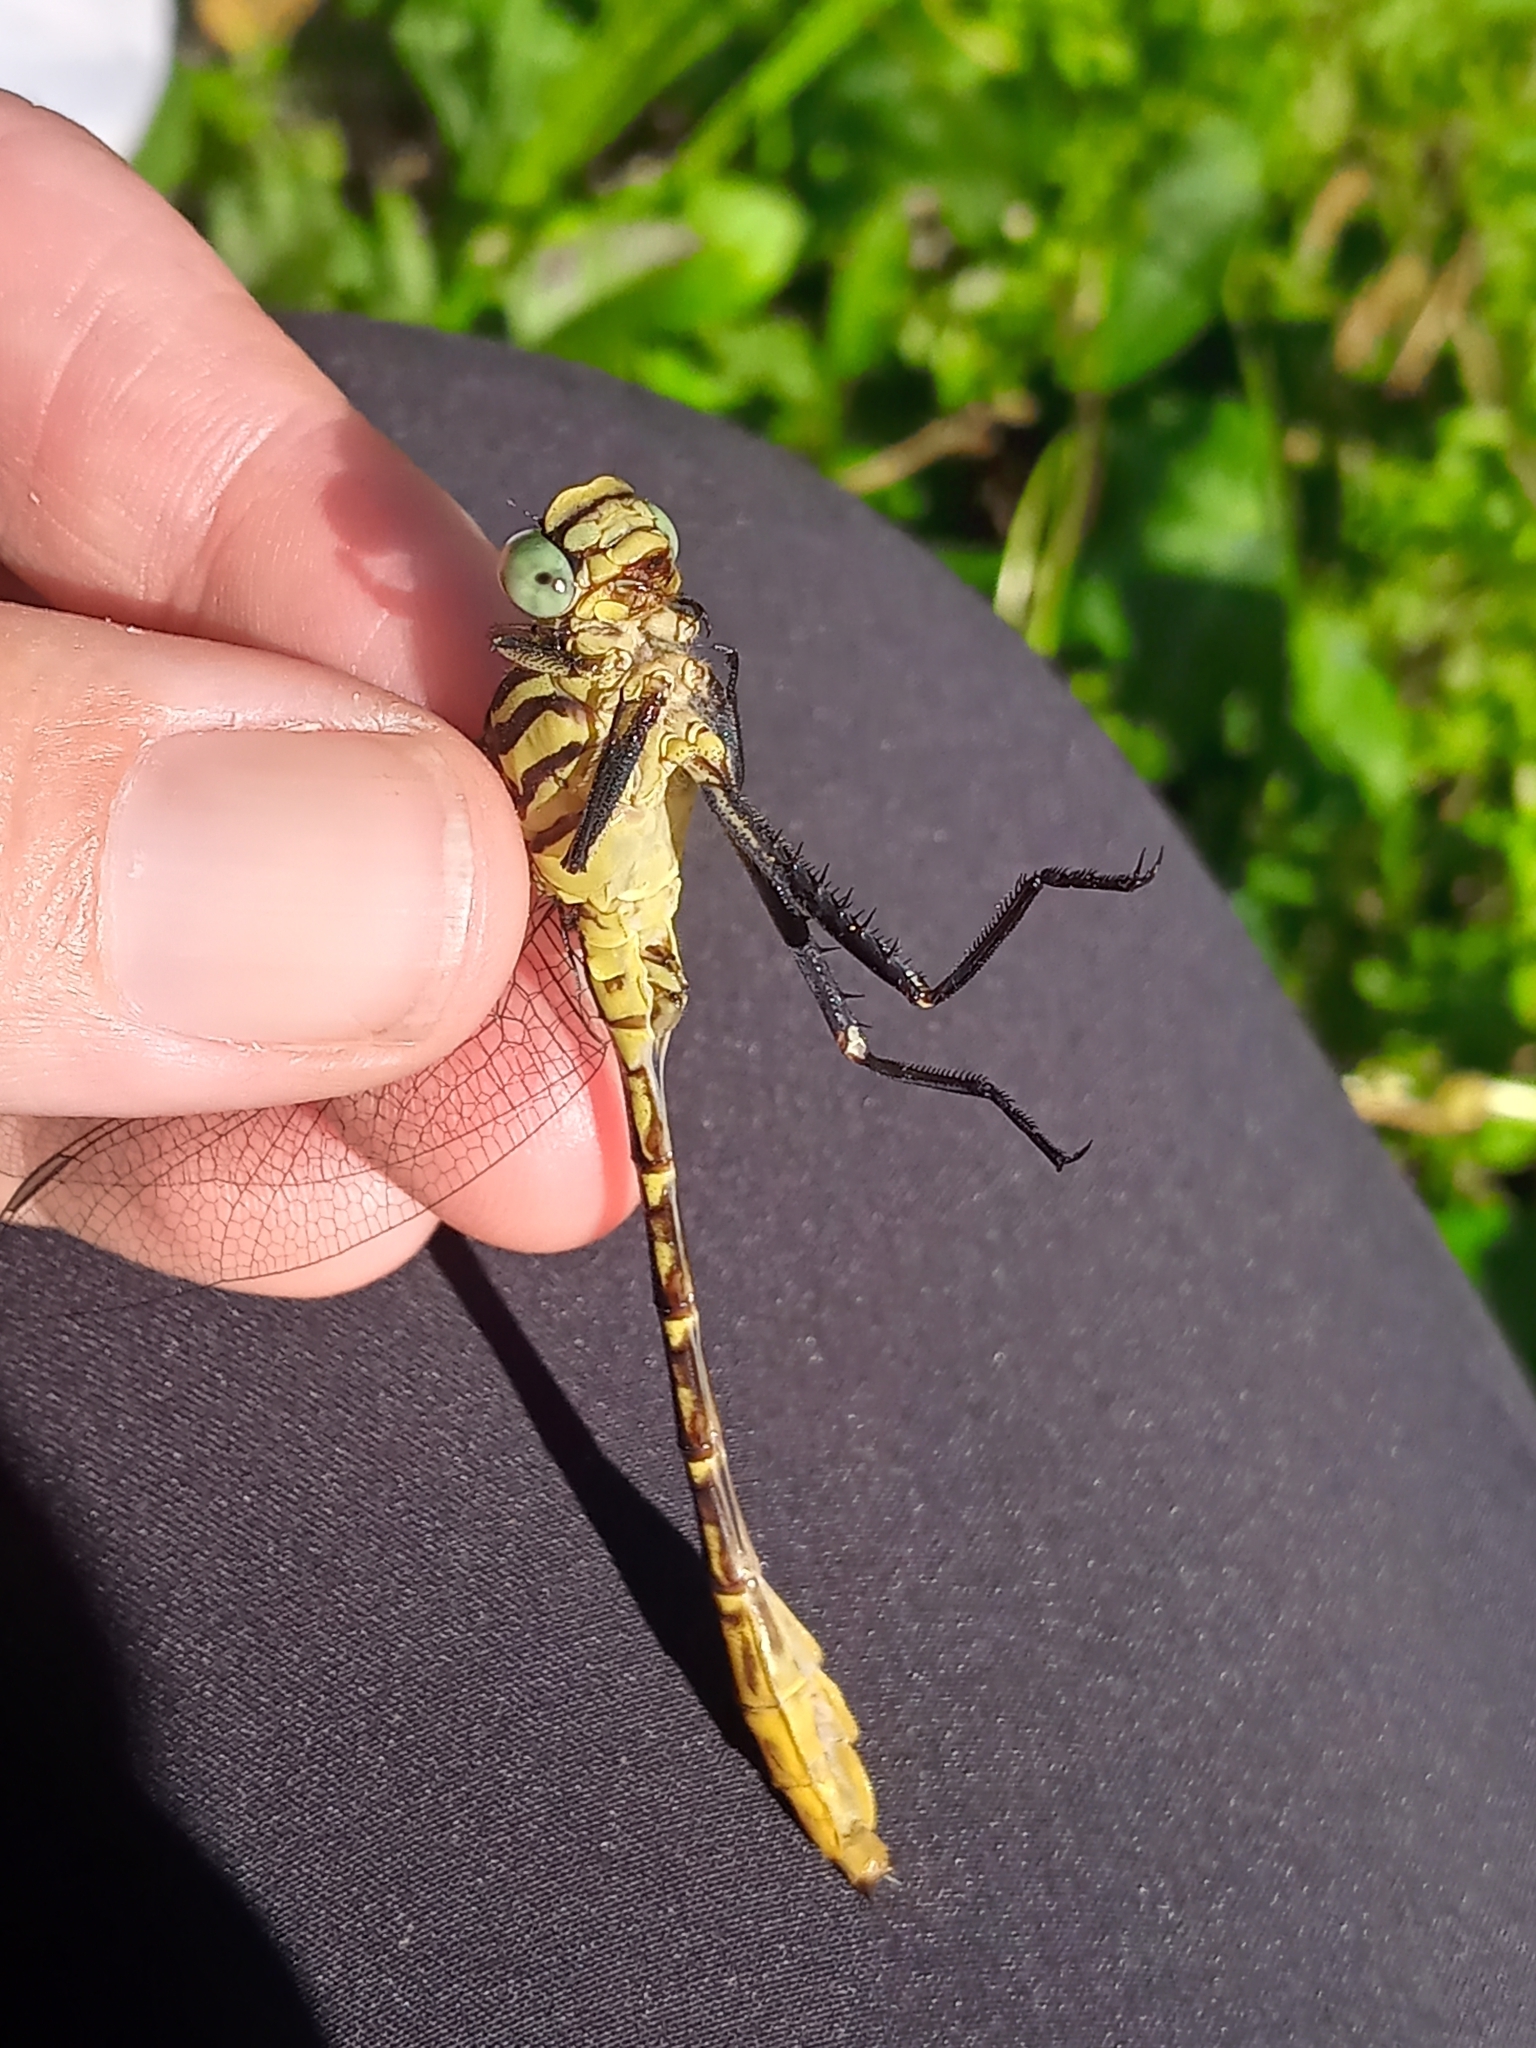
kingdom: Animalia
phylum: Arthropoda
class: Insecta
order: Odonata
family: Gomphidae
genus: Dromogomphus
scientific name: Dromogomphus armatus
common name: Southeastern spinyleg
